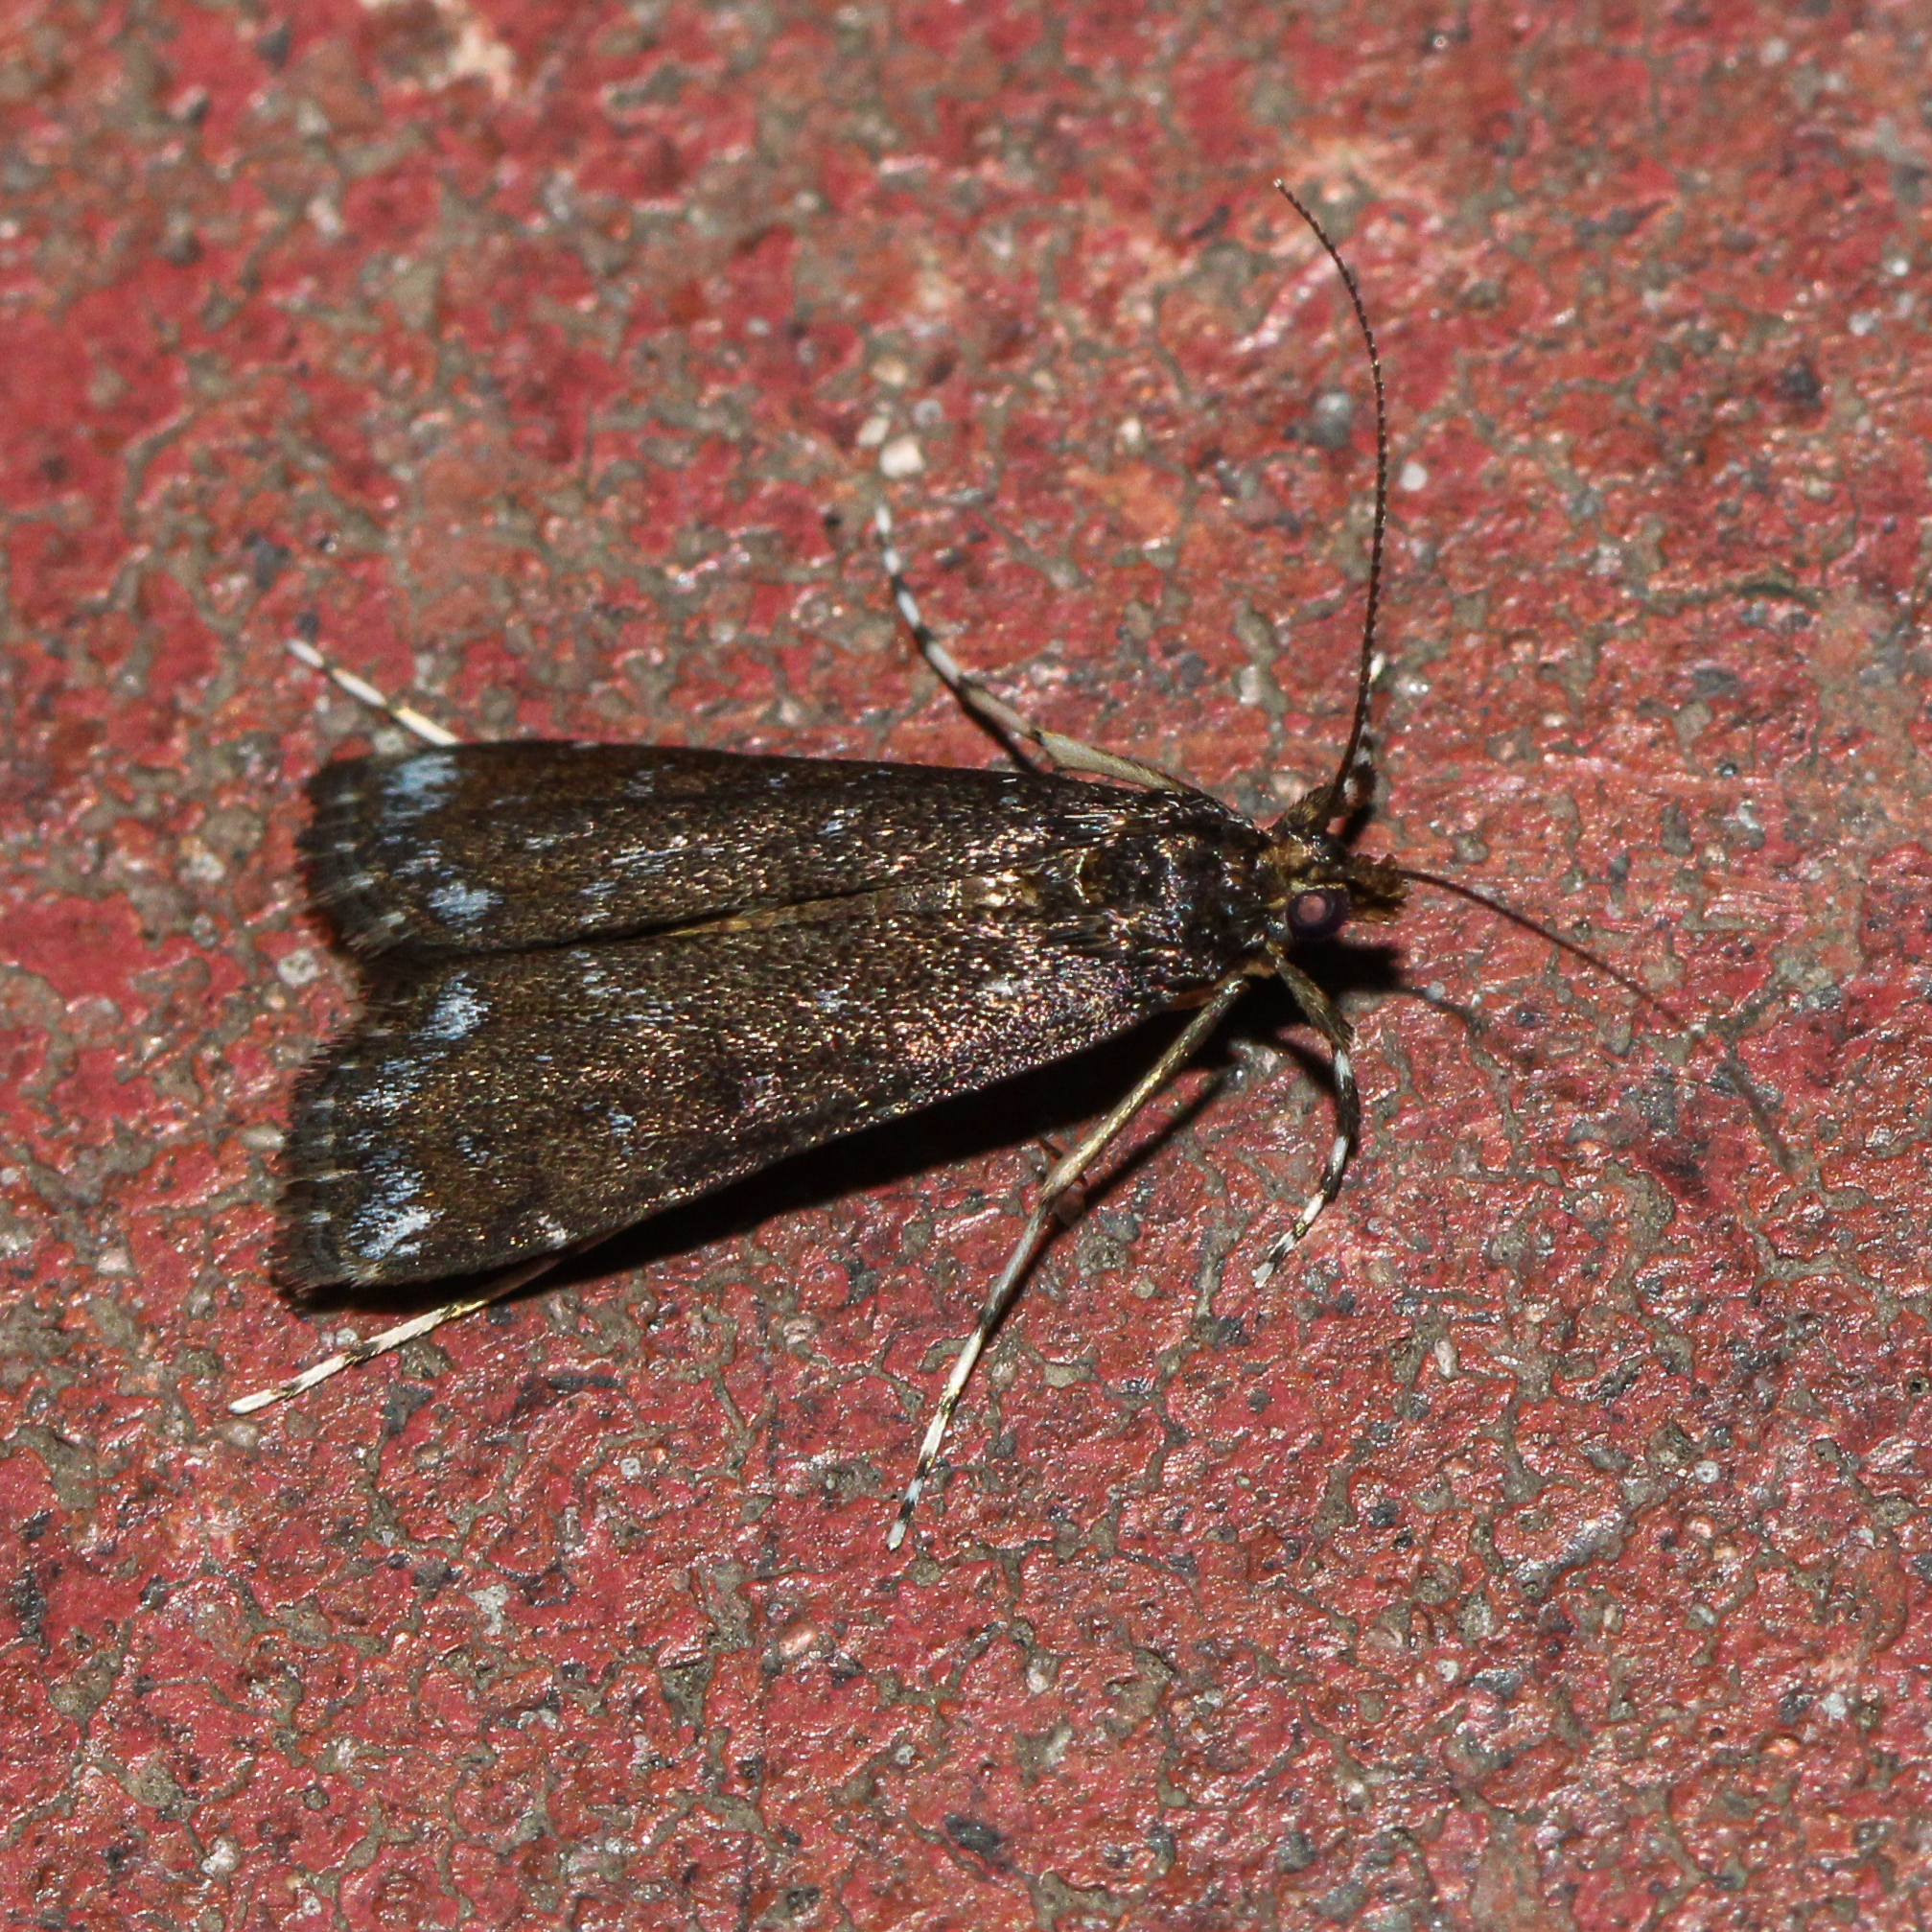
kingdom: Animalia
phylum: Arthropoda
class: Insecta
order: Lepidoptera
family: Crambidae
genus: Langessa
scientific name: Langessa nomophilalis
